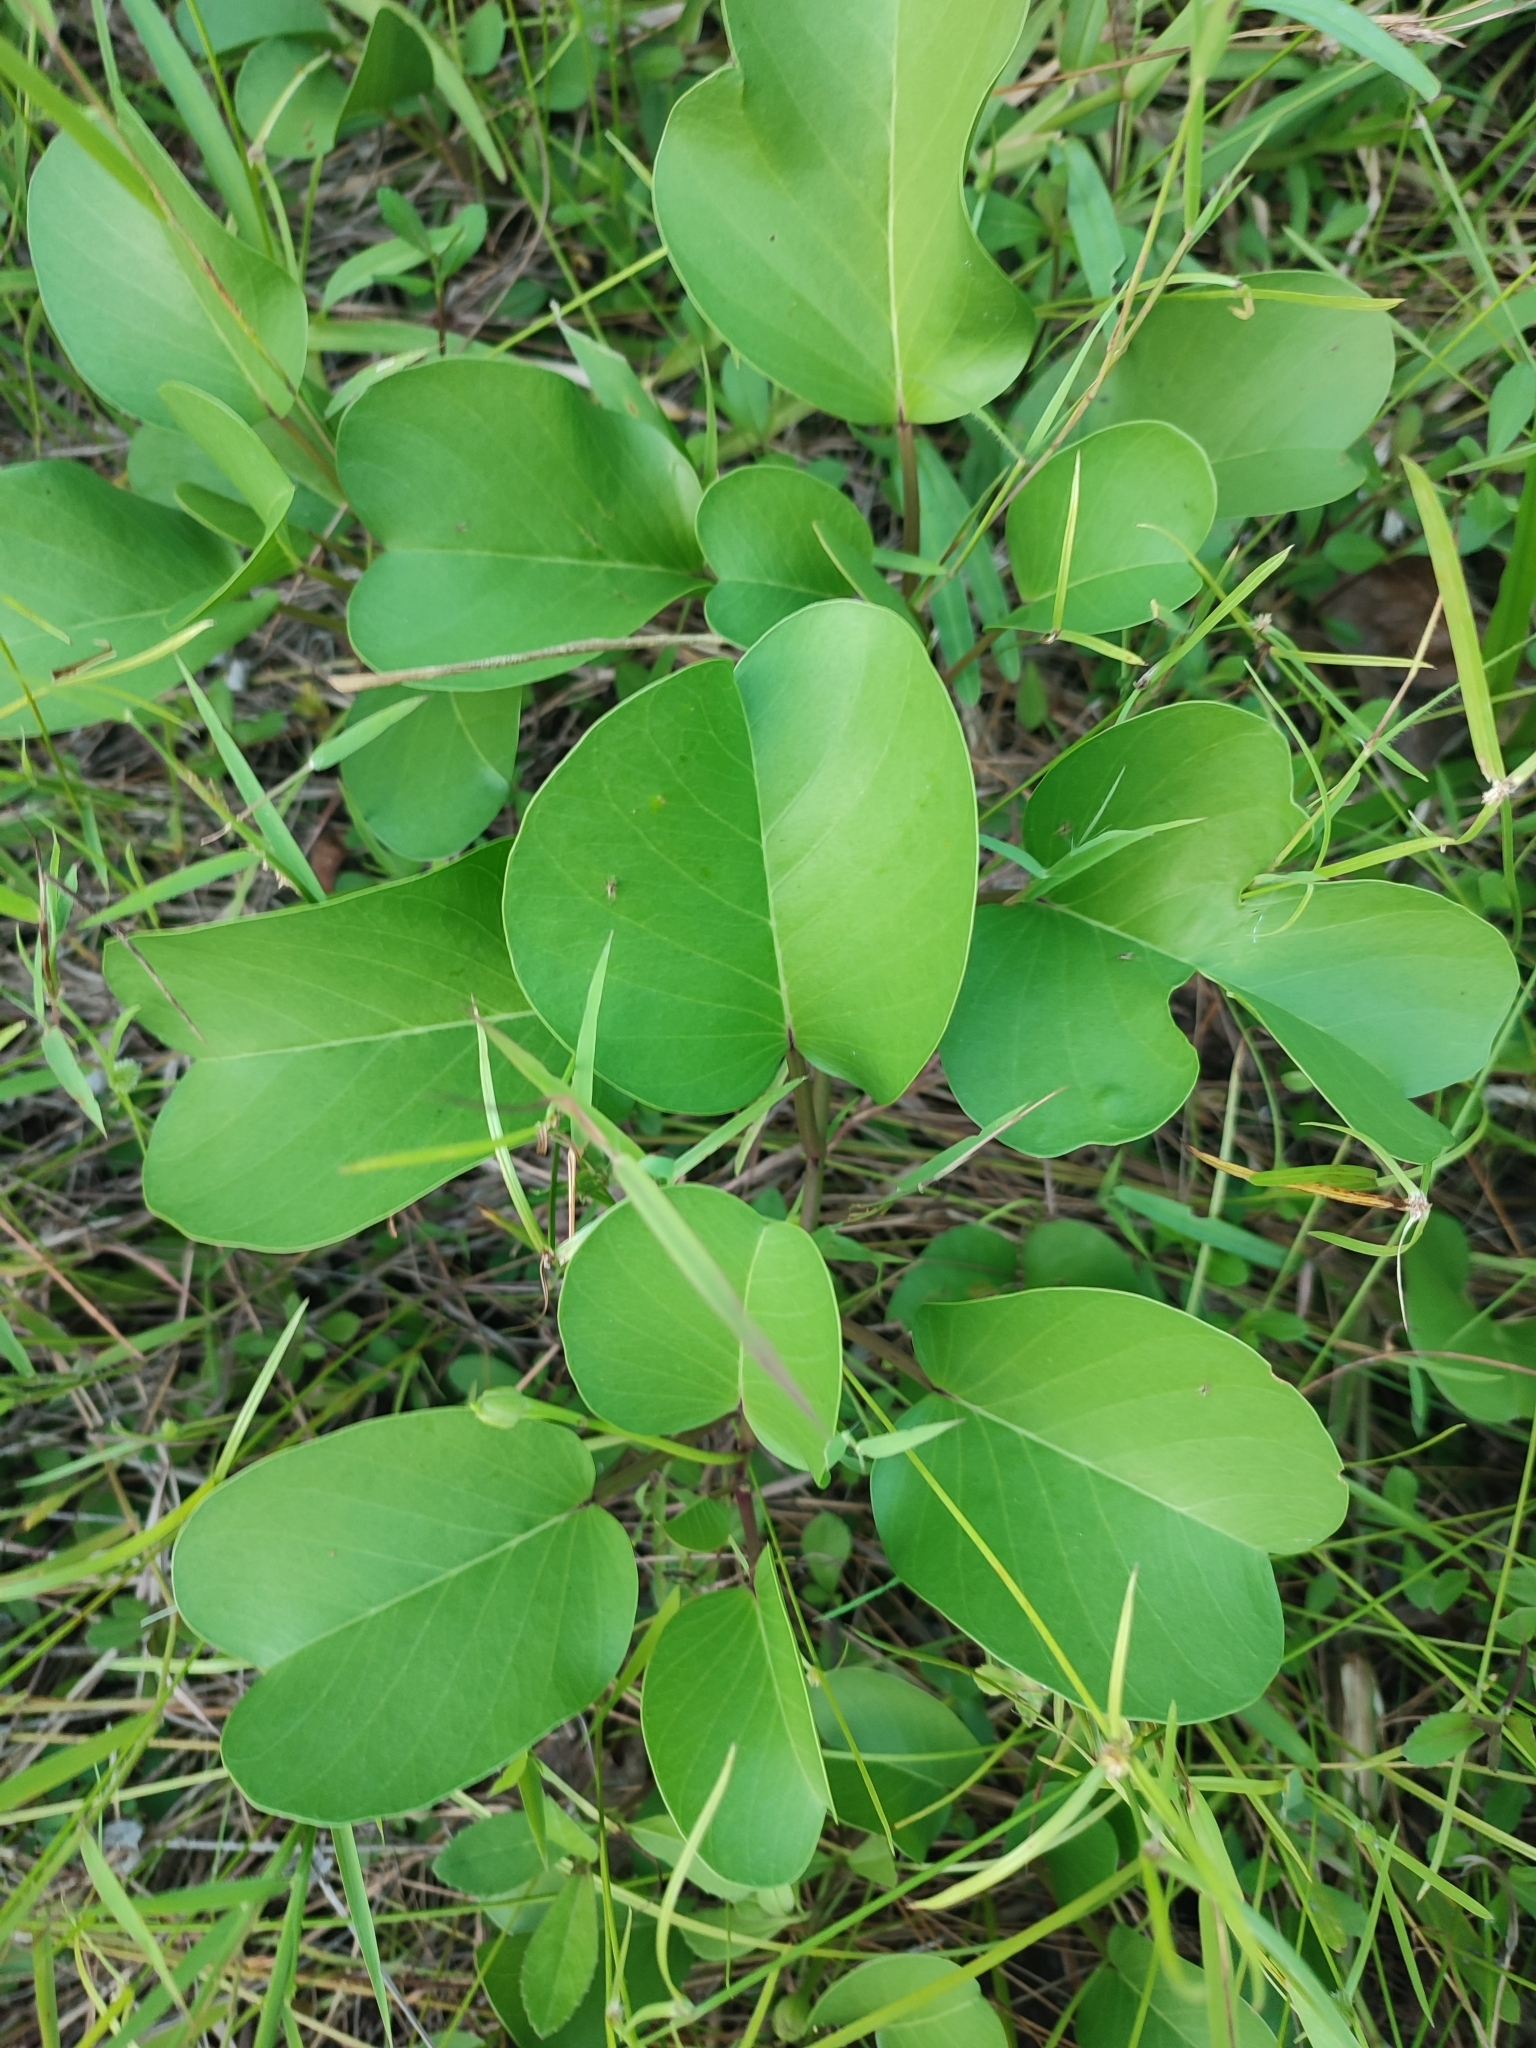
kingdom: Plantae
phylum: Tracheophyta
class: Magnoliopsida
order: Solanales
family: Convolvulaceae
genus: Ipomoea
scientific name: Ipomoea pes-caprae
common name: Beach morning glory
